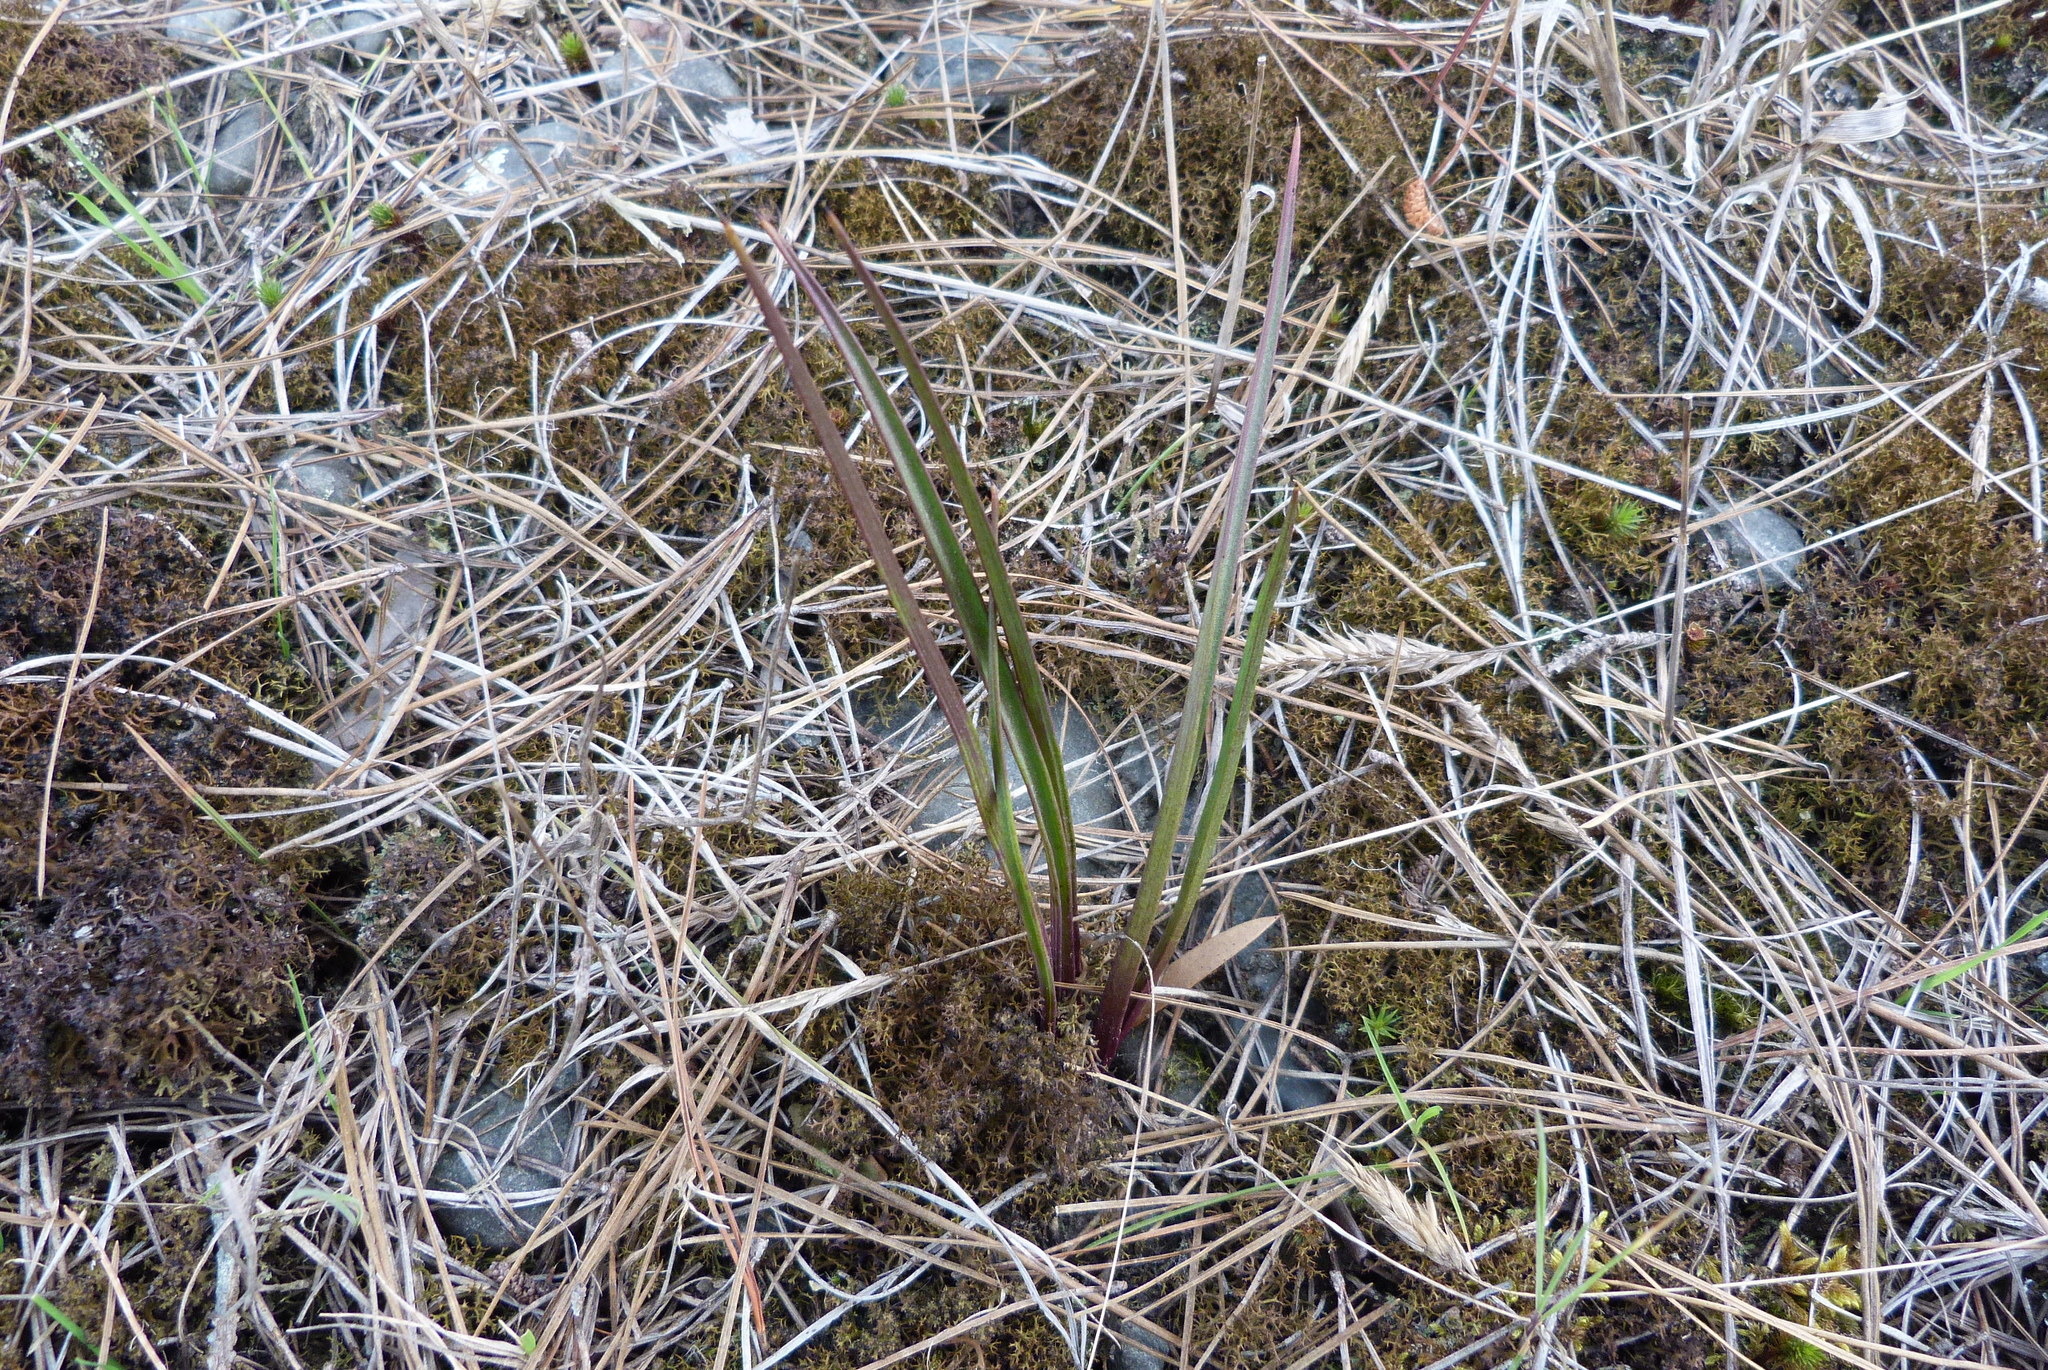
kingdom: Plantae
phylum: Tracheophyta
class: Liliopsida
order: Asparagales
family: Orchidaceae
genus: Thelymitra
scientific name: Thelymitra longifolia
